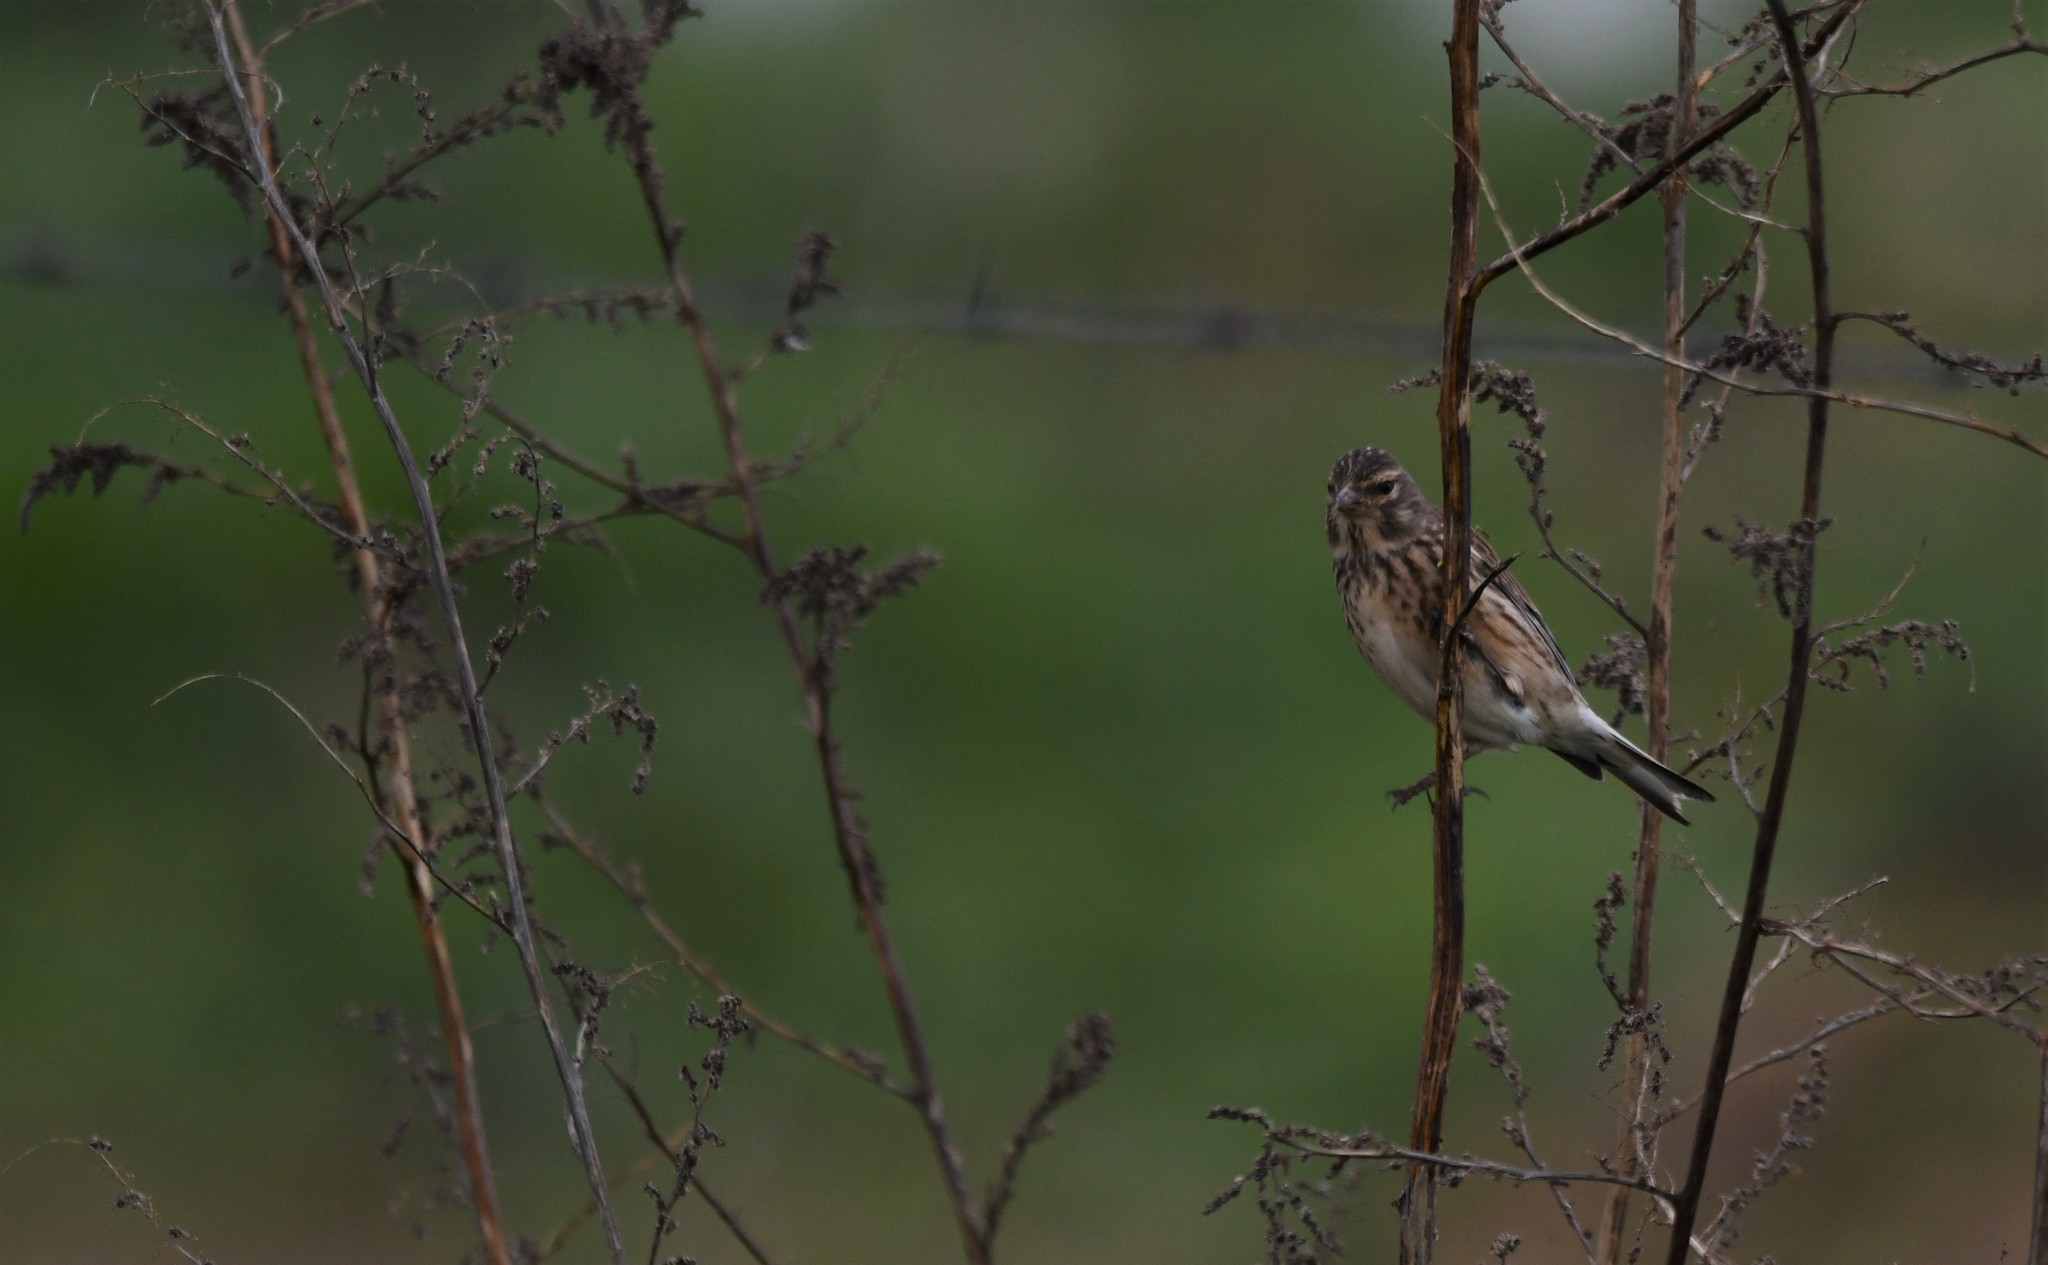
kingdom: Animalia
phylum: Chordata
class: Aves
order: Passeriformes
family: Fringillidae
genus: Linaria
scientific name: Linaria cannabina
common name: Common linnet
